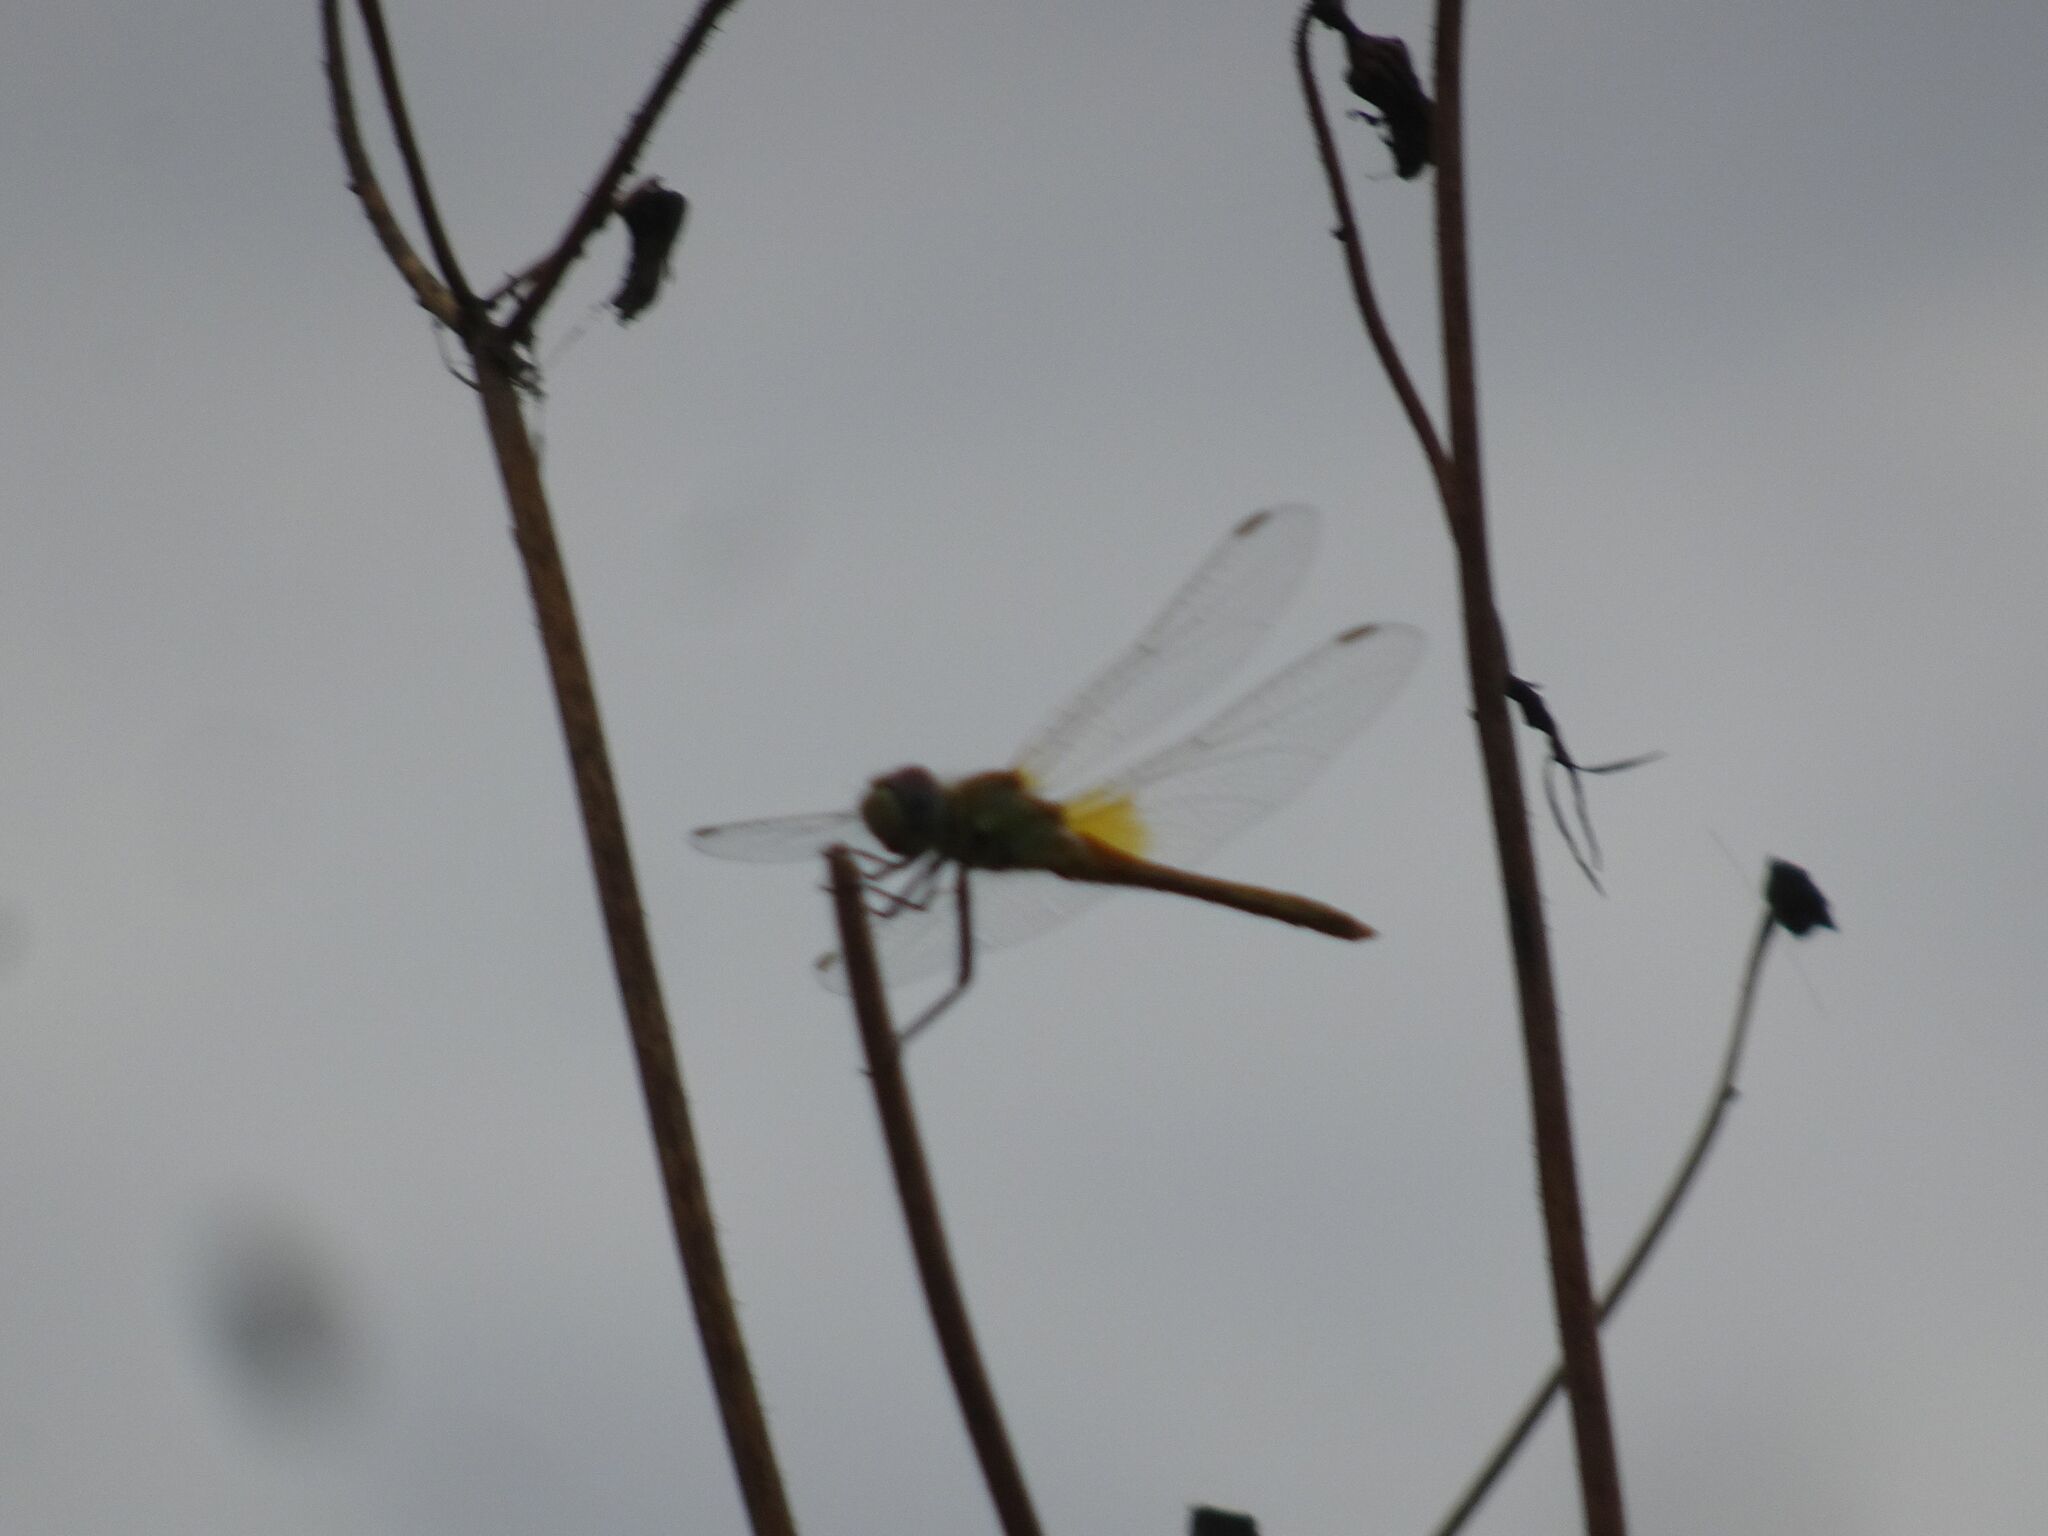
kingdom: Animalia
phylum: Arthropoda
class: Insecta
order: Odonata
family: Libellulidae
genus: Sympetrum
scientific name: Sympetrum fonscolombii
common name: Red-veined darter
